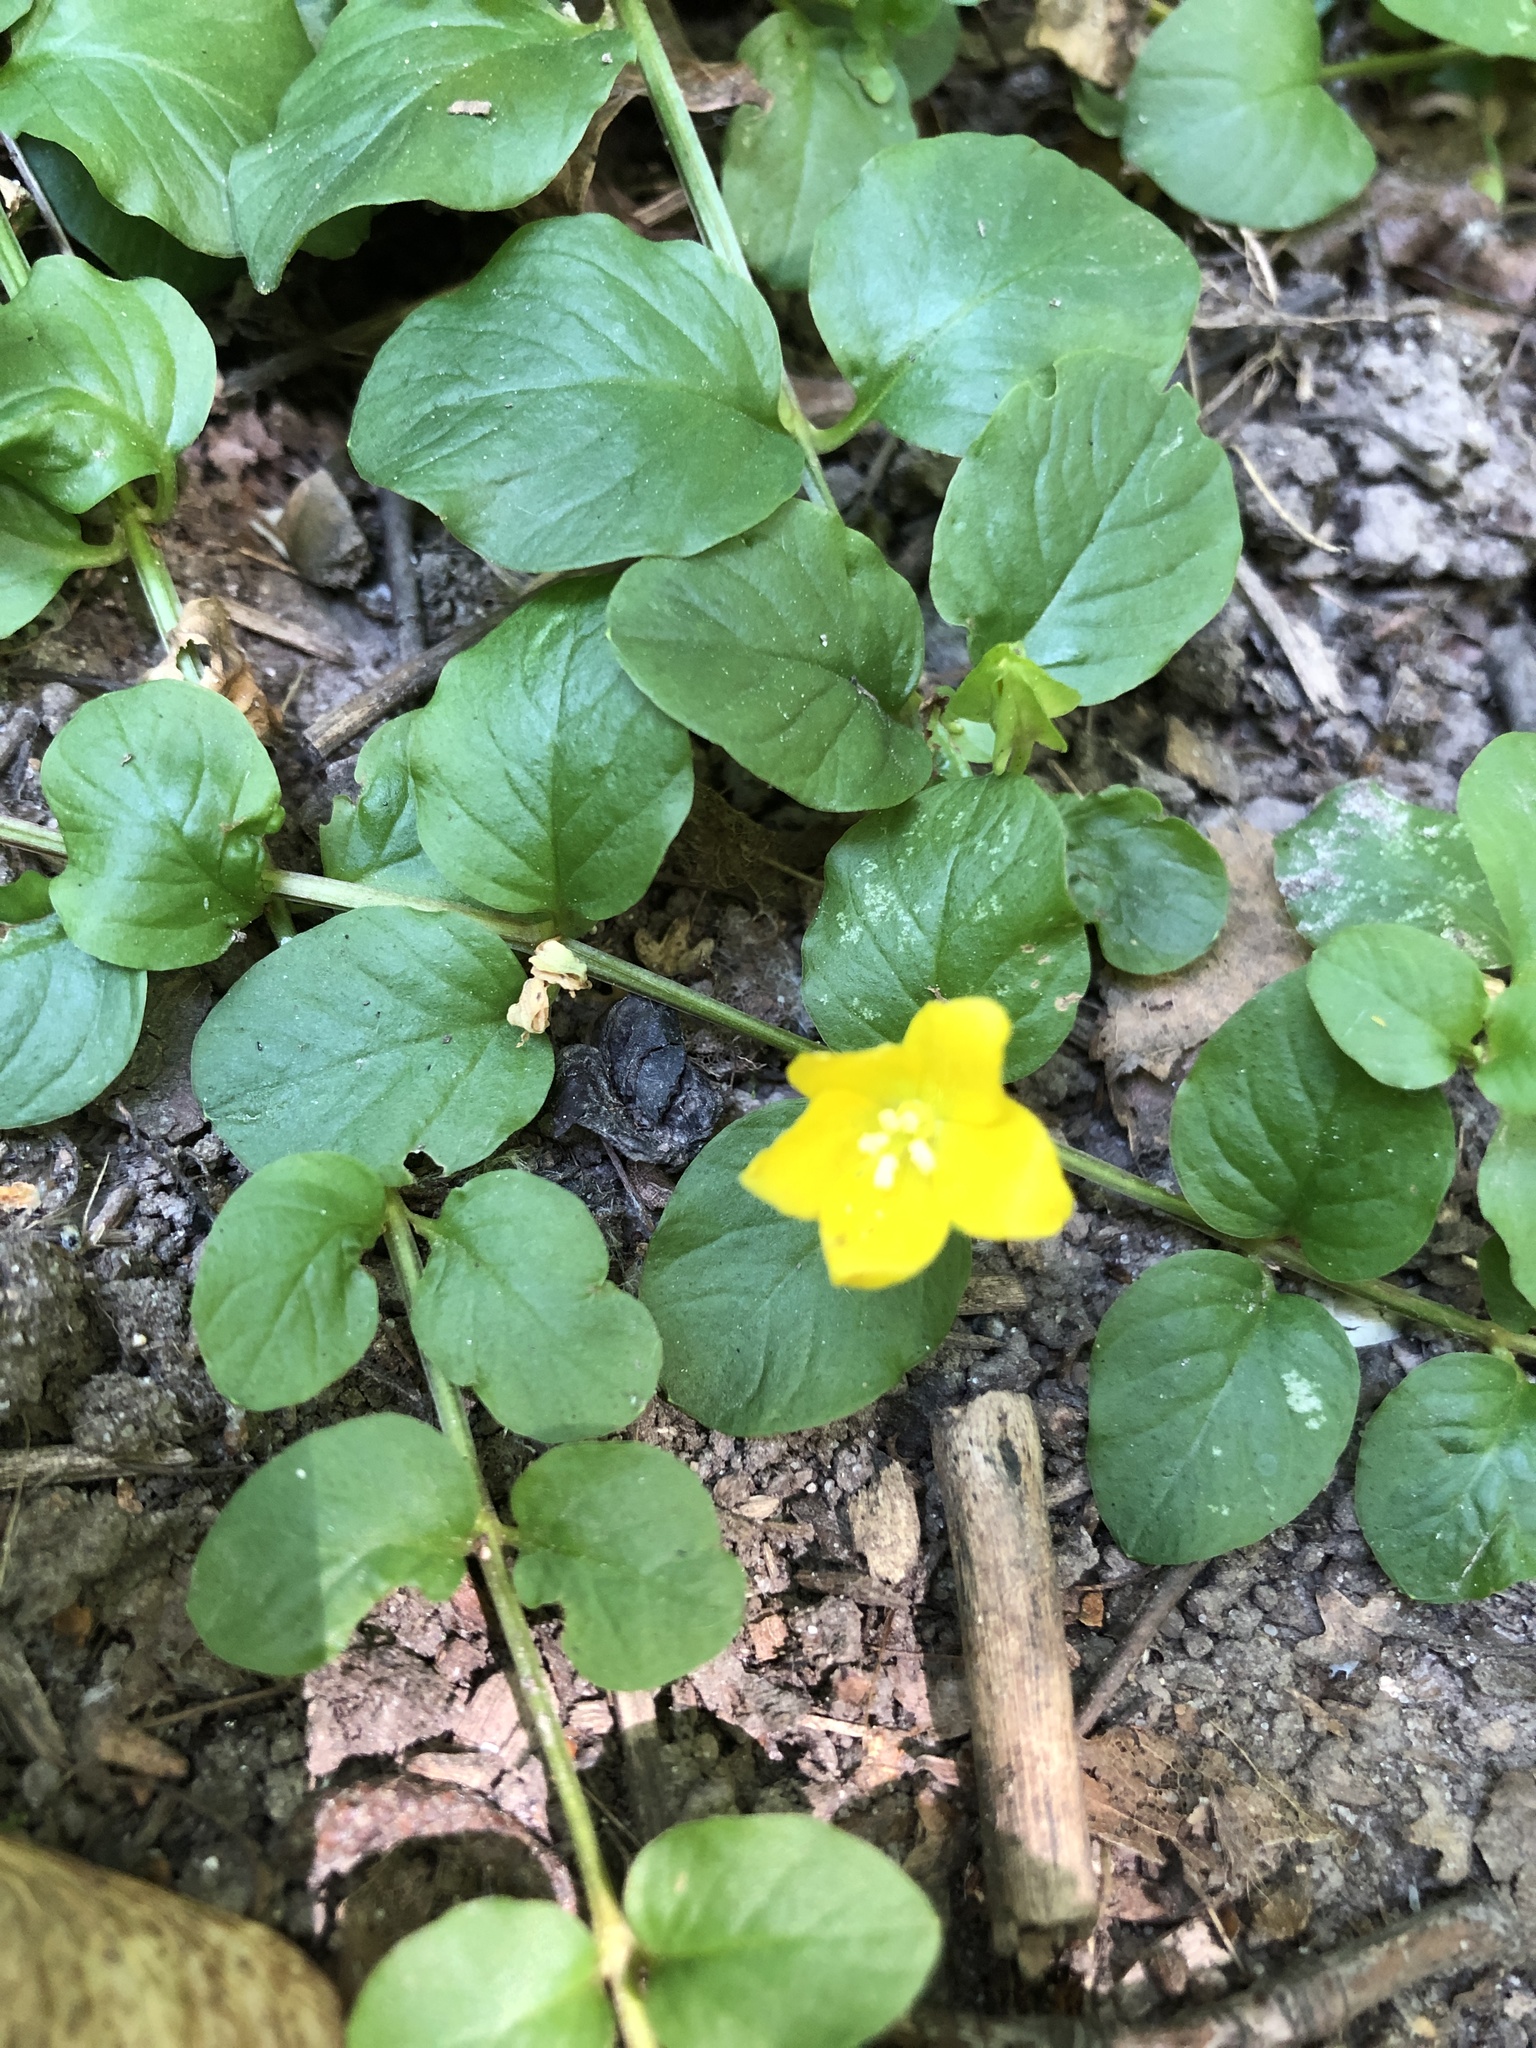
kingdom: Plantae
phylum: Tracheophyta
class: Magnoliopsida
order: Ericales
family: Primulaceae
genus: Lysimachia
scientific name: Lysimachia nummularia
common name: Moneywort
